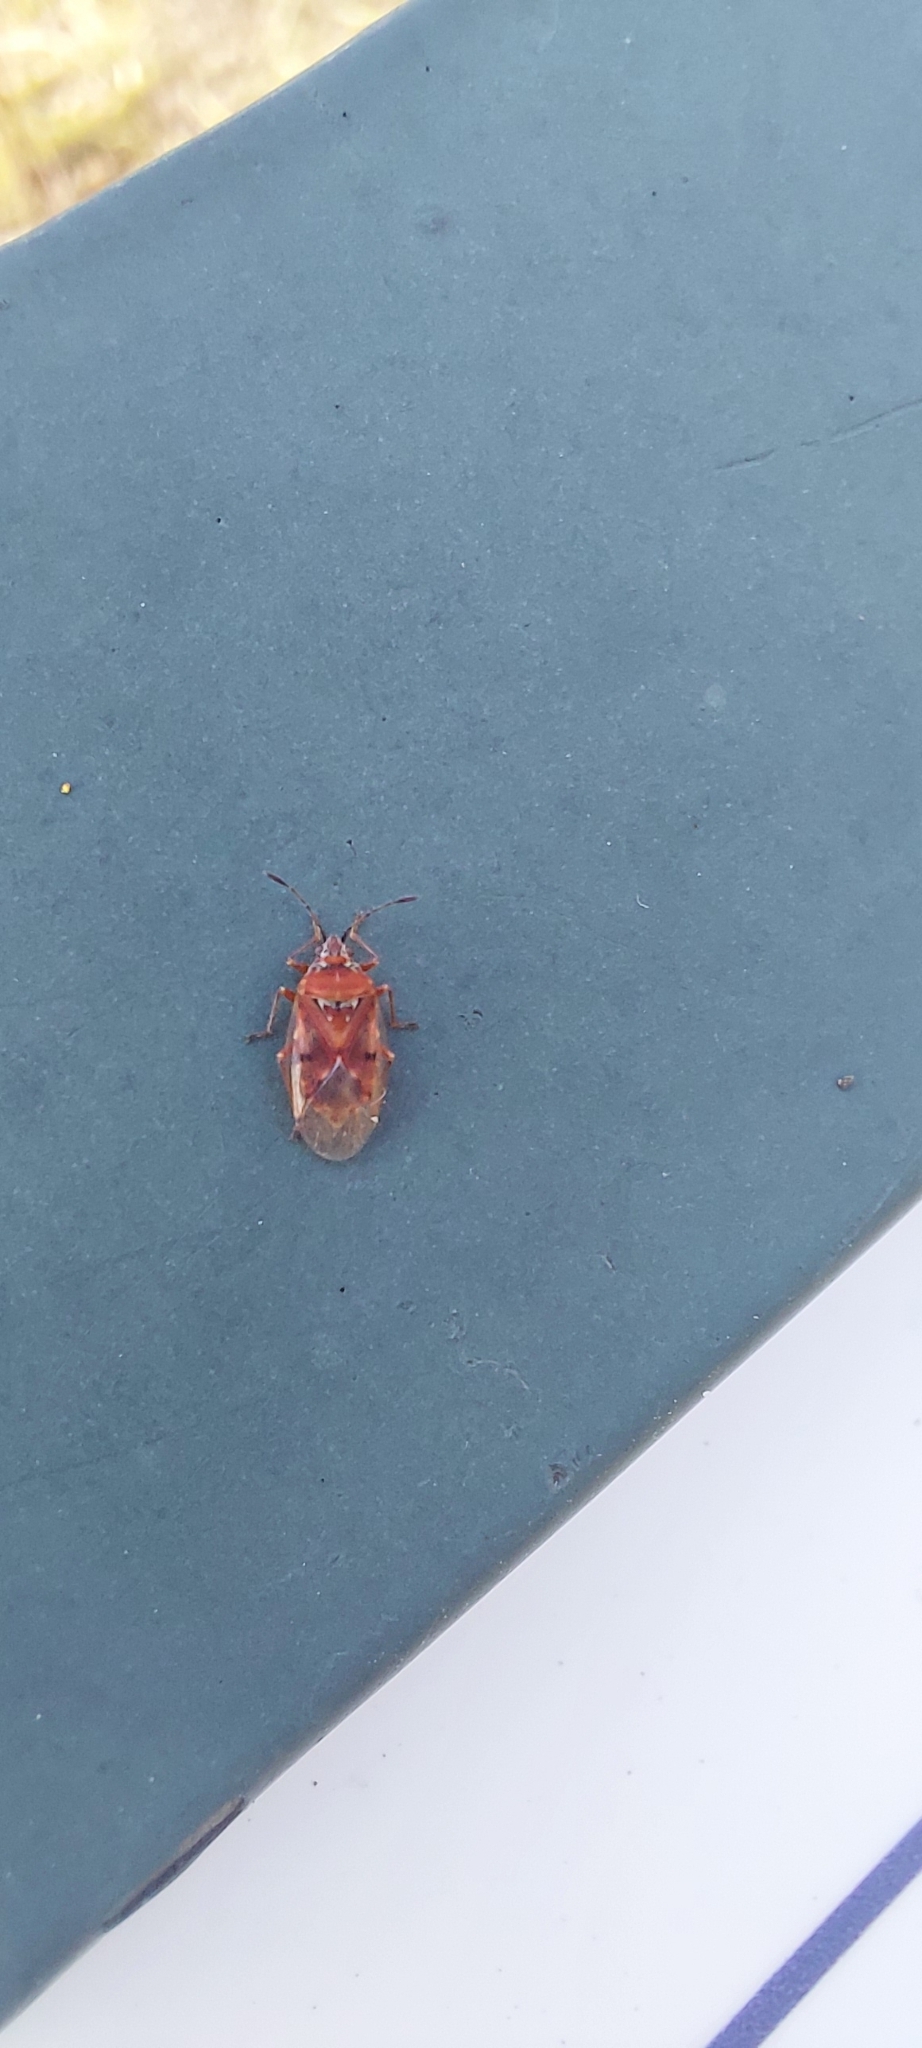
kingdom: Animalia
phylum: Arthropoda
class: Insecta
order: Hemiptera
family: Lygaeidae
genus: Kleidocerys
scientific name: Kleidocerys resedae
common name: Birch catkin bug
